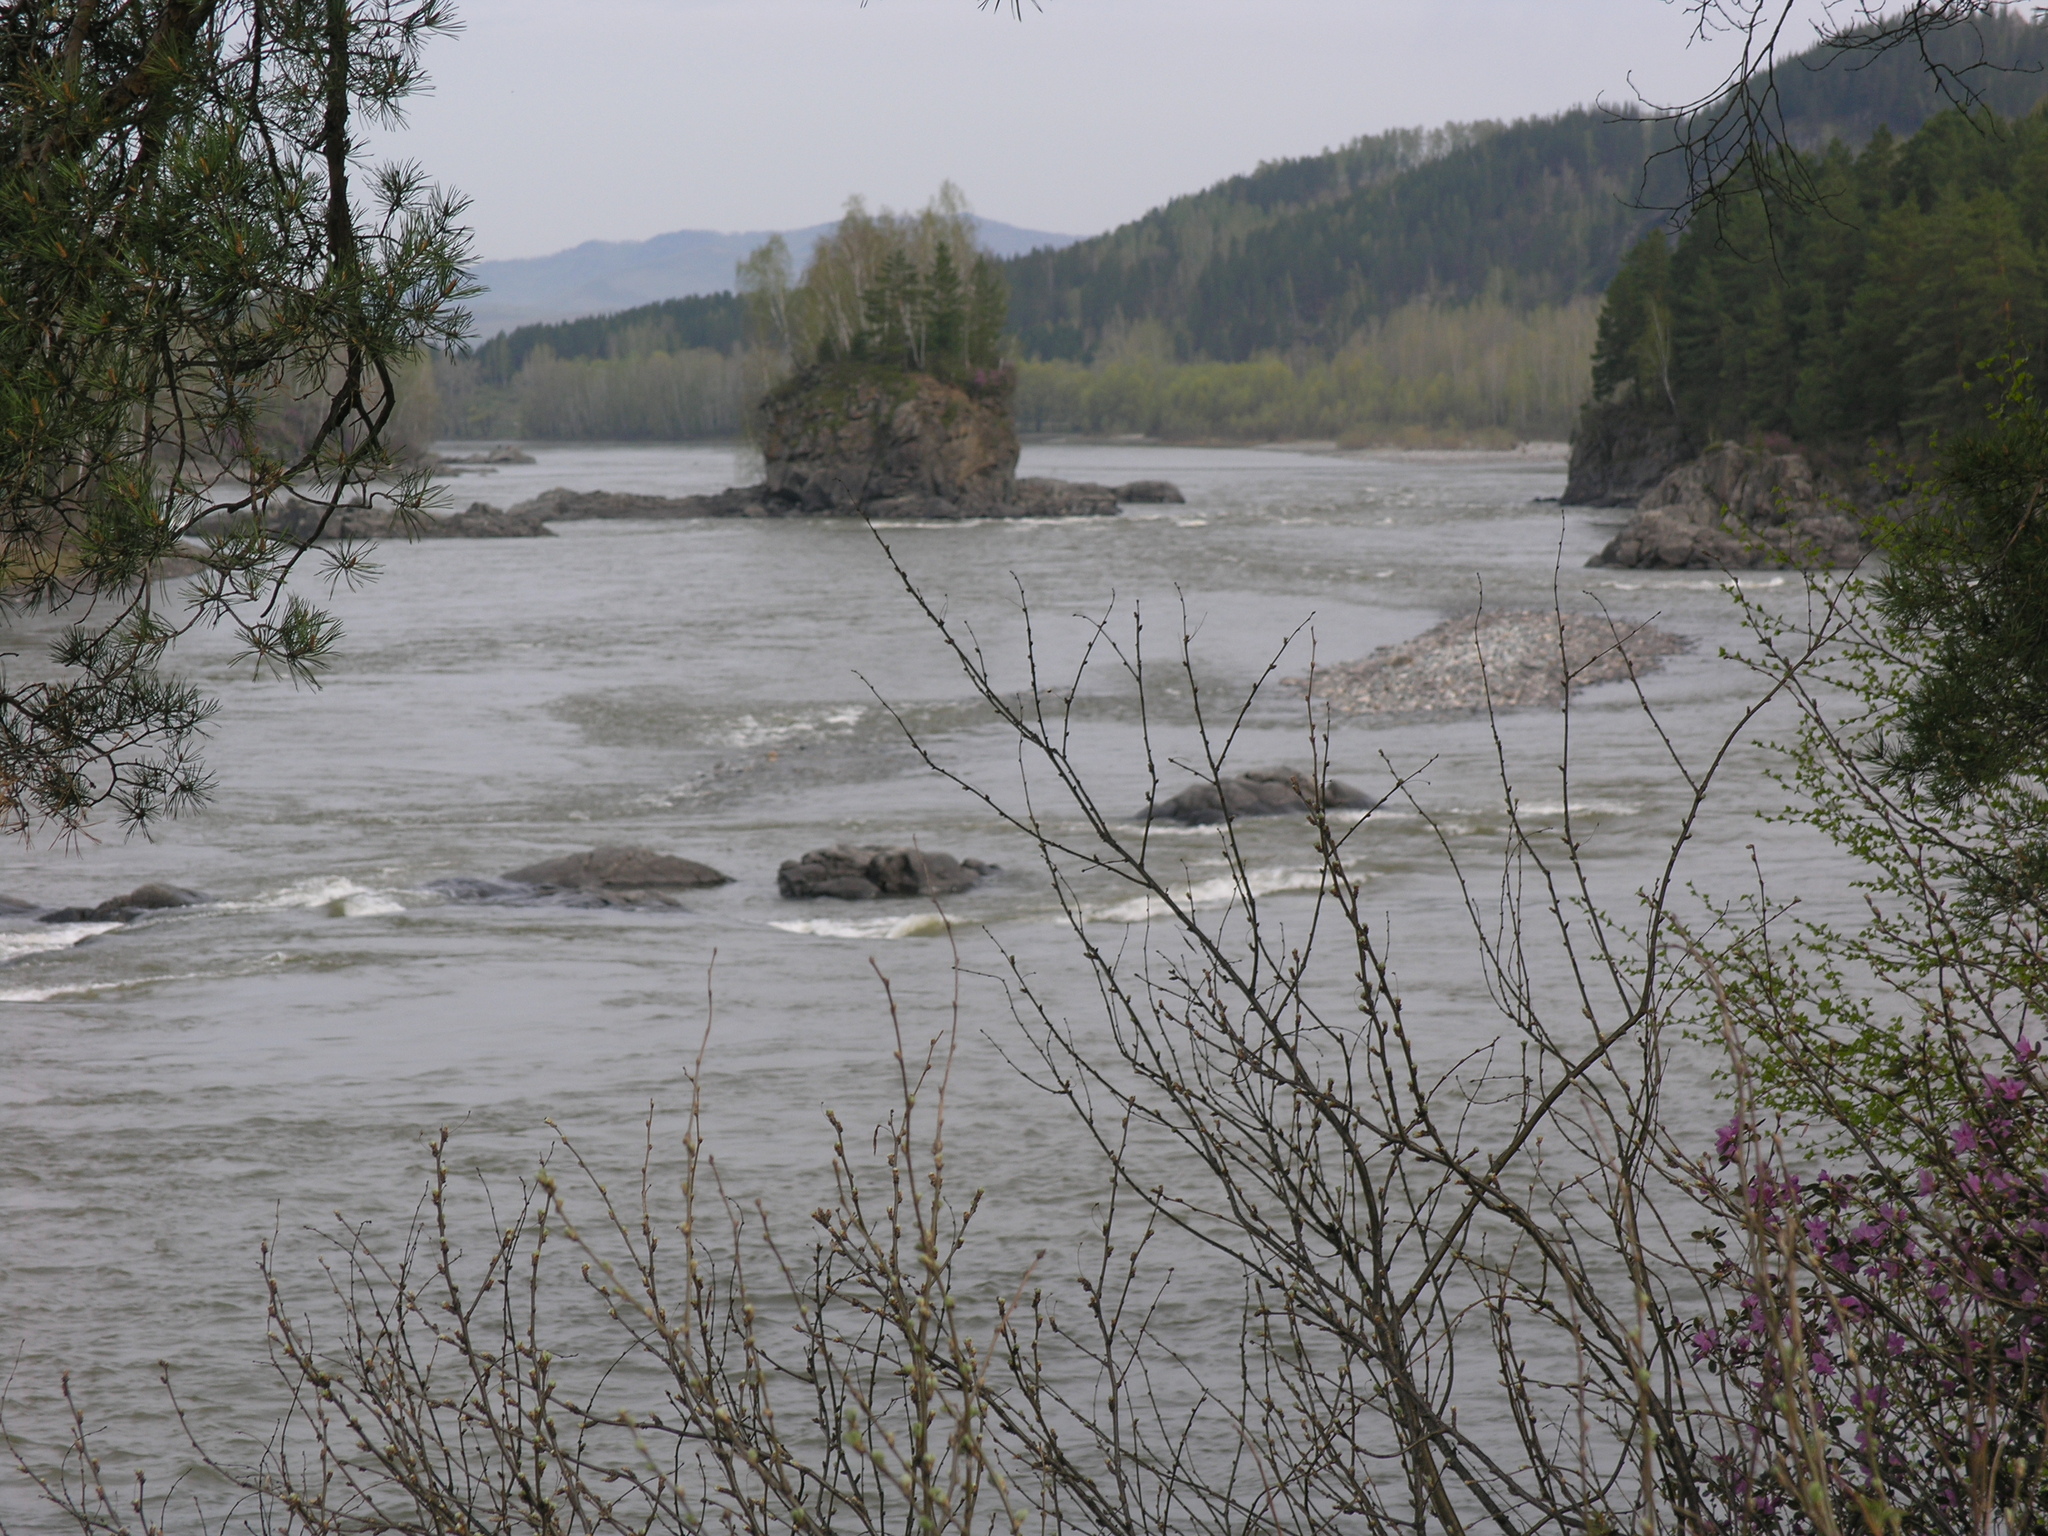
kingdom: Plantae
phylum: Tracheophyta
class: Magnoliopsida
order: Fabales
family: Fabaceae
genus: Caragana
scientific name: Caragana arborescens
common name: Siberian peashrub
